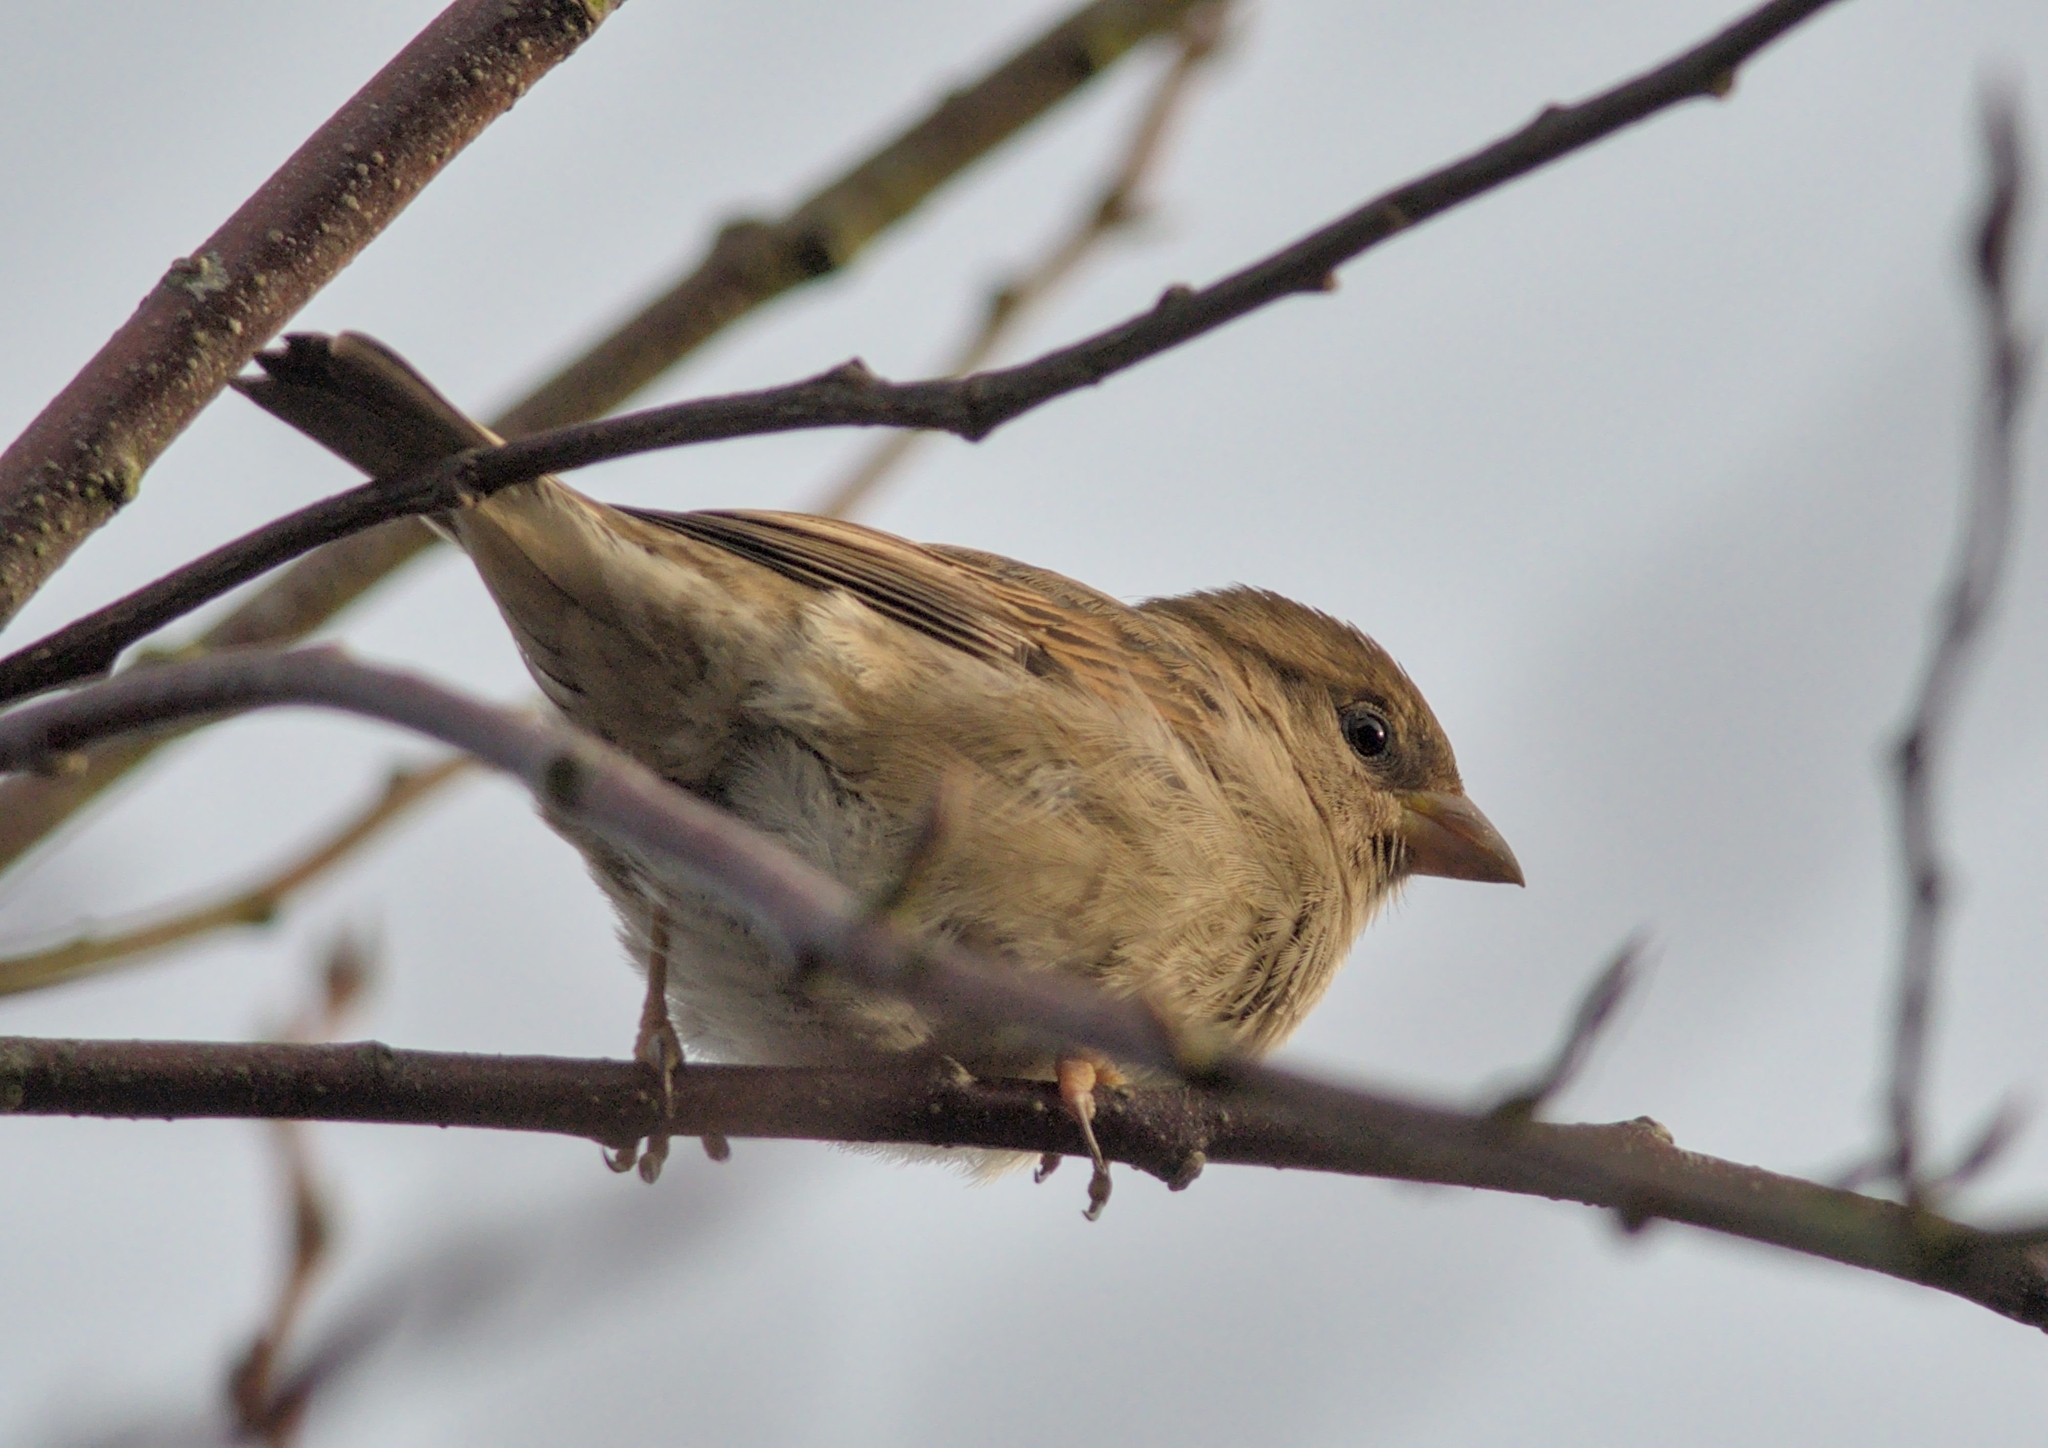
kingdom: Animalia
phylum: Chordata
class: Aves
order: Passeriformes
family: Passeridae
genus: Passer
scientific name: Passer domesticus
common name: House sparrow
